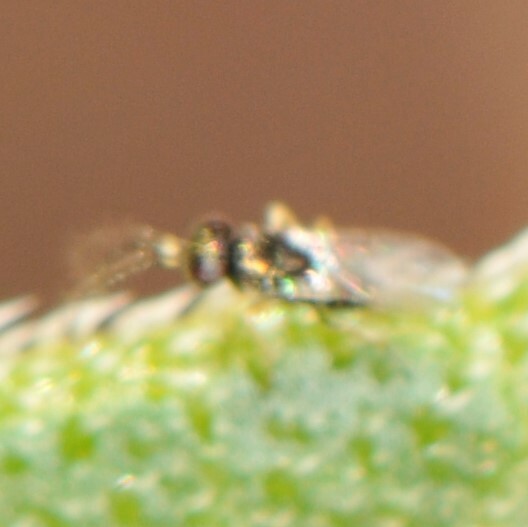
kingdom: Animalia
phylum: Arthropoda
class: Insecta
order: Hymenoptera
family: Encyrtidae
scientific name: Encyrtidae
